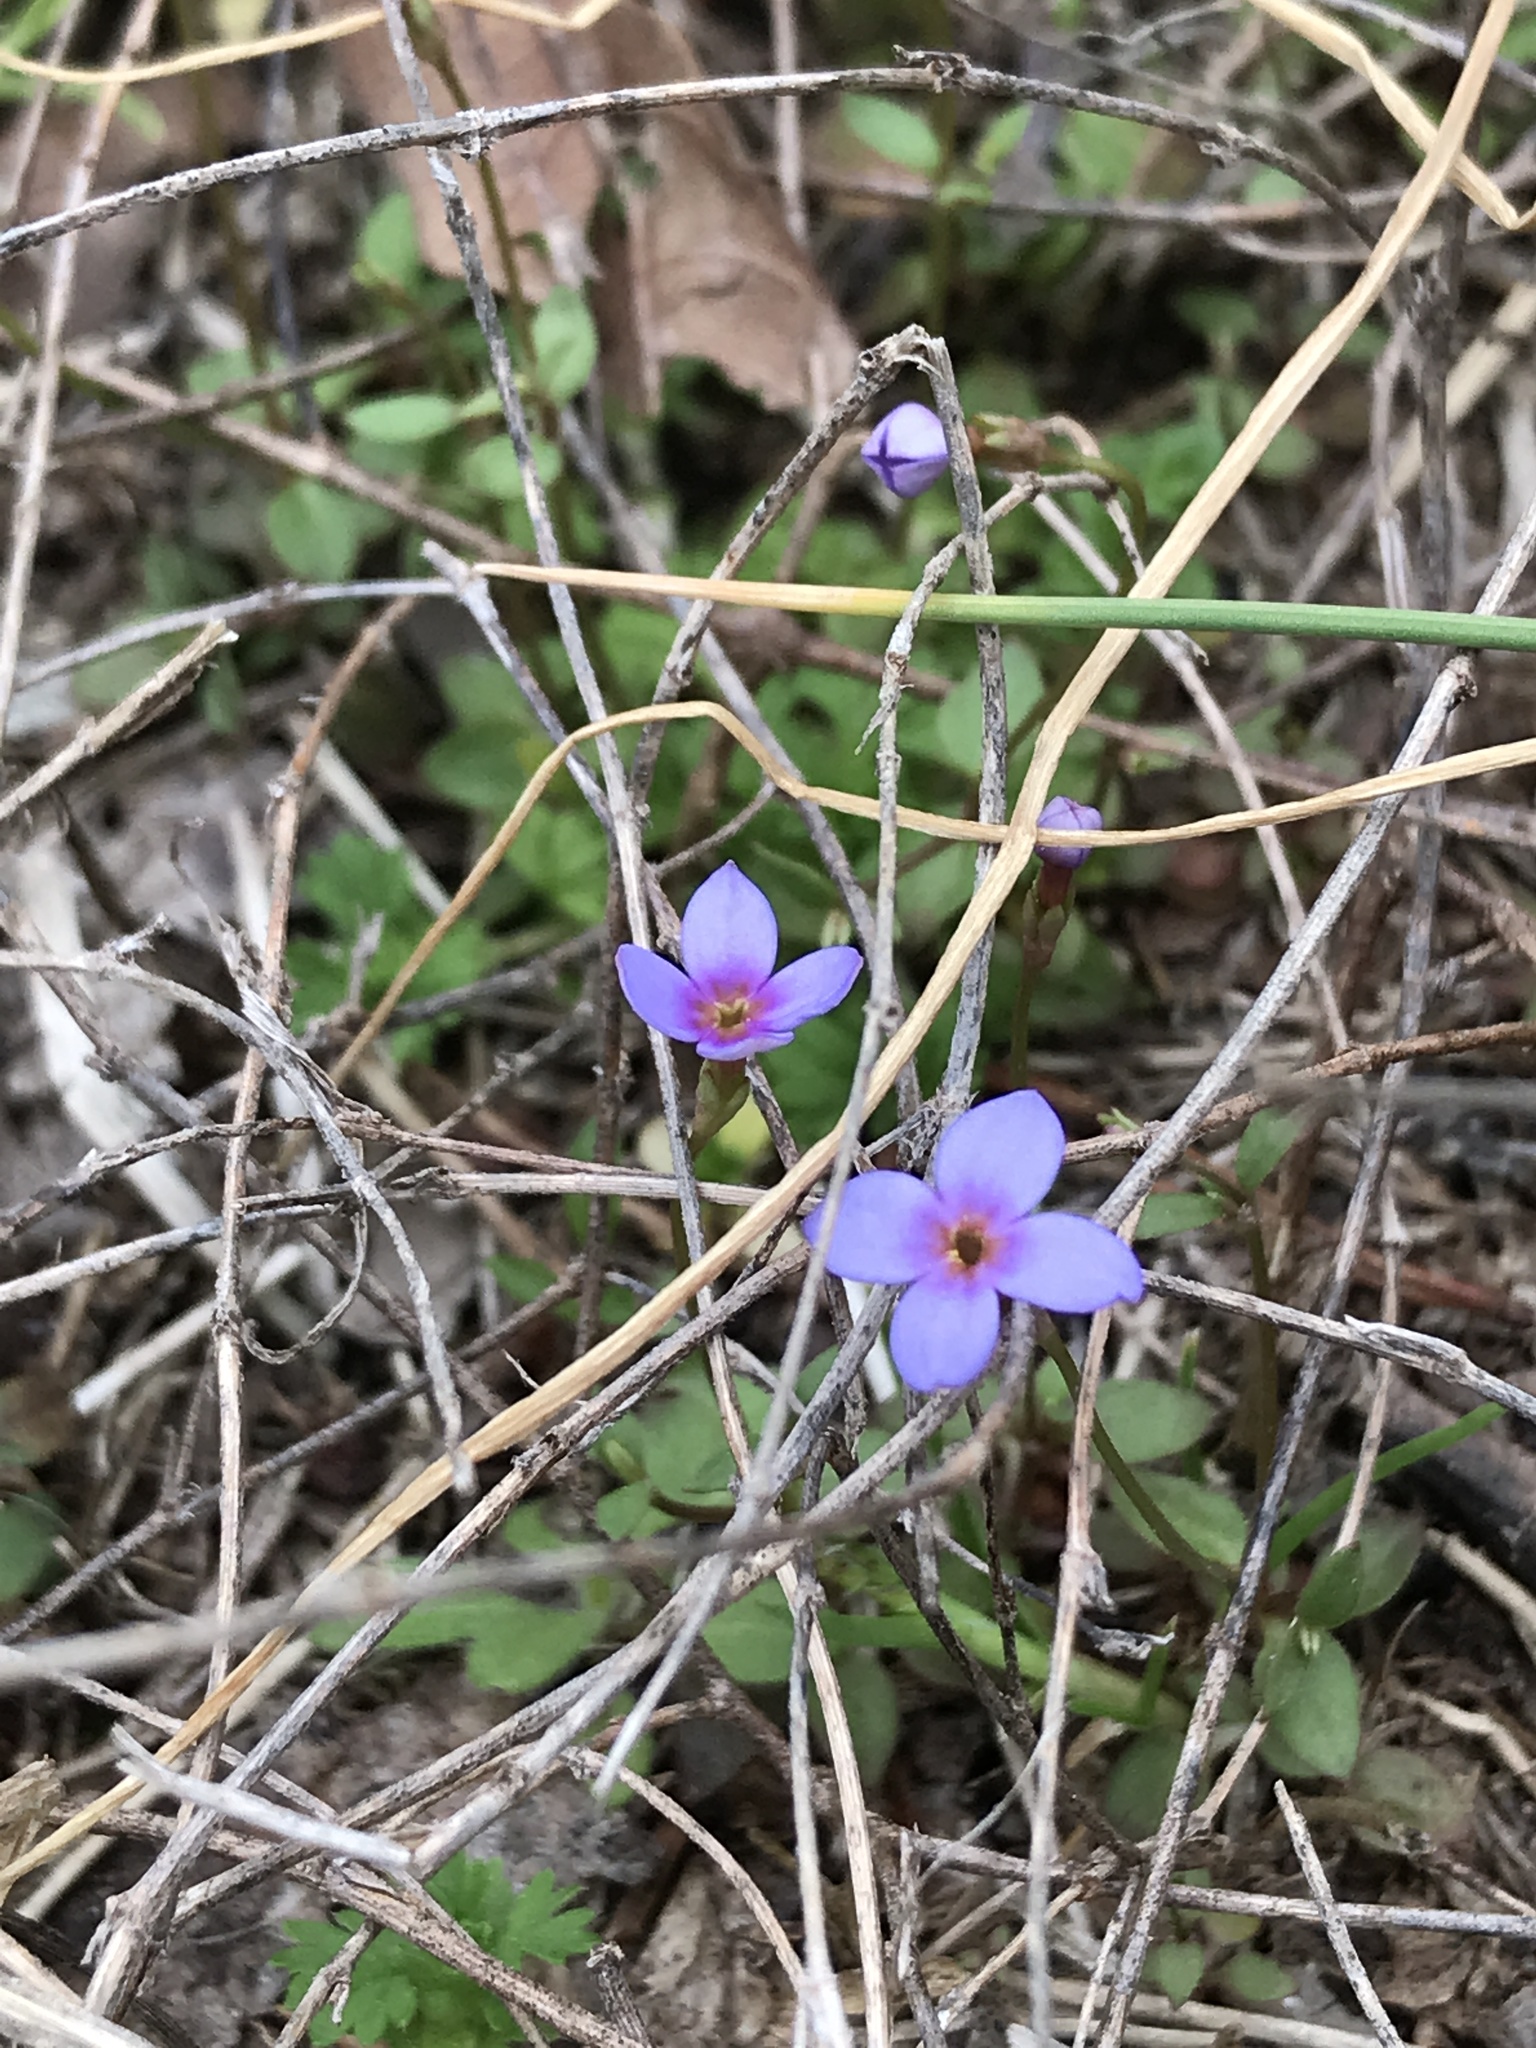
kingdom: Plantae
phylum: Tracheophyta
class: Magnoliopsida
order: Gentianales
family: Rubiaceae
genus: Houstonia
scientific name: Houstonia pusilla
